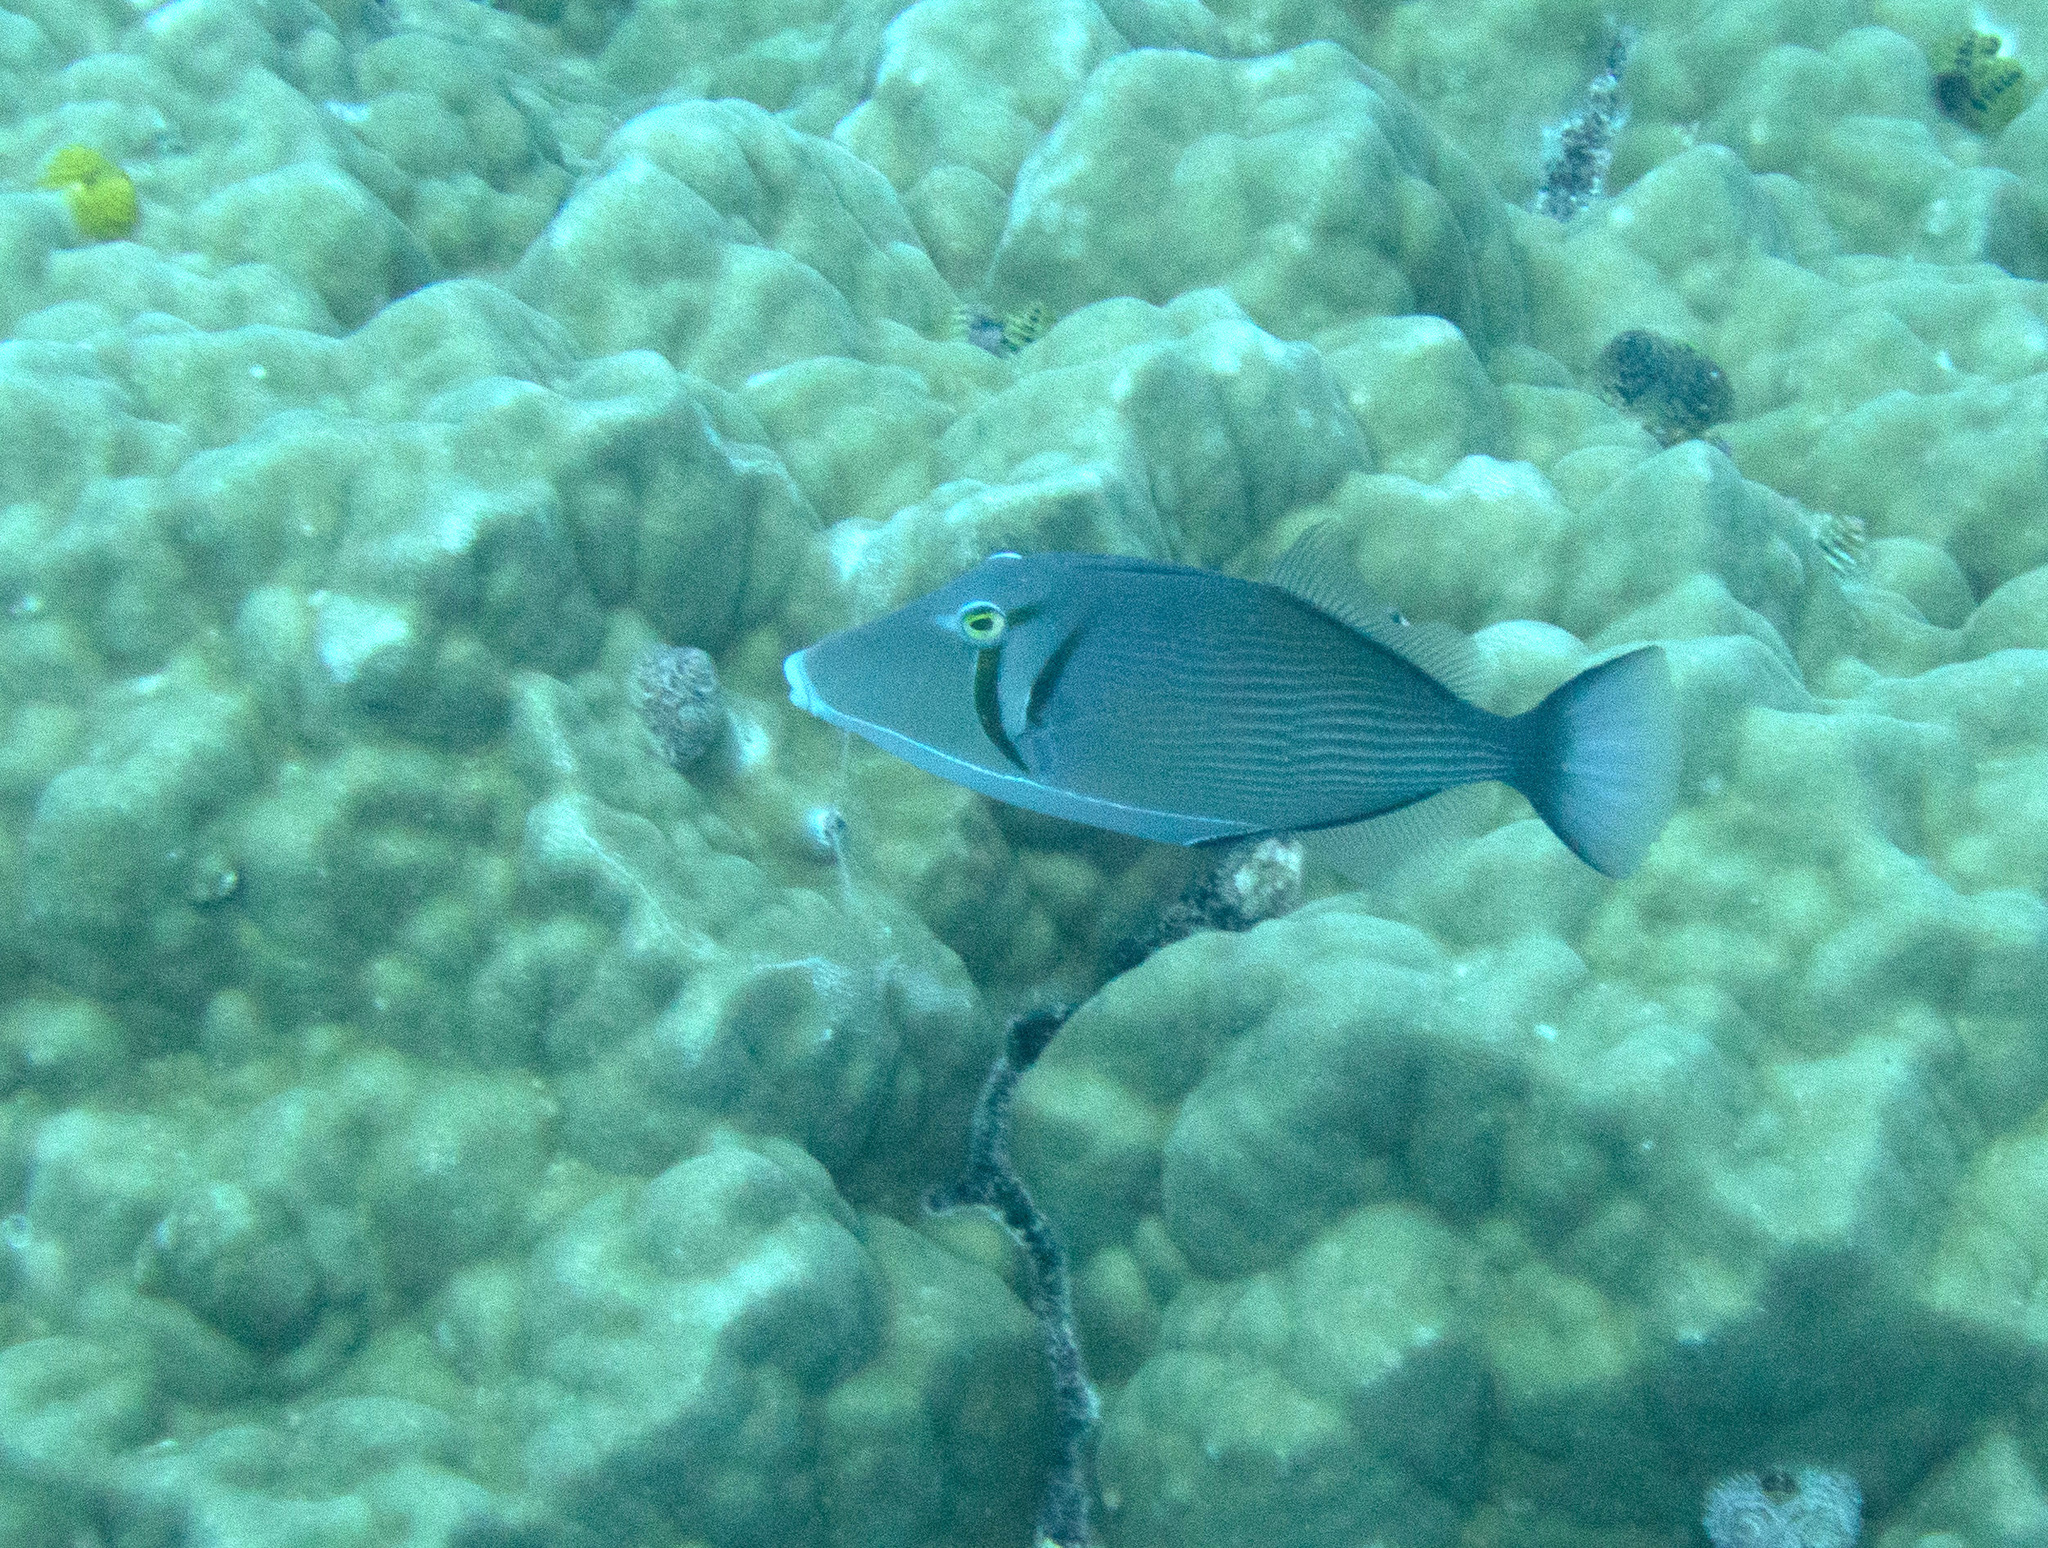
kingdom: Animalia
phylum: Chordata
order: Tetraodontiformes
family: Balistidae
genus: Sufflamen
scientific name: Sufflamen bursa
